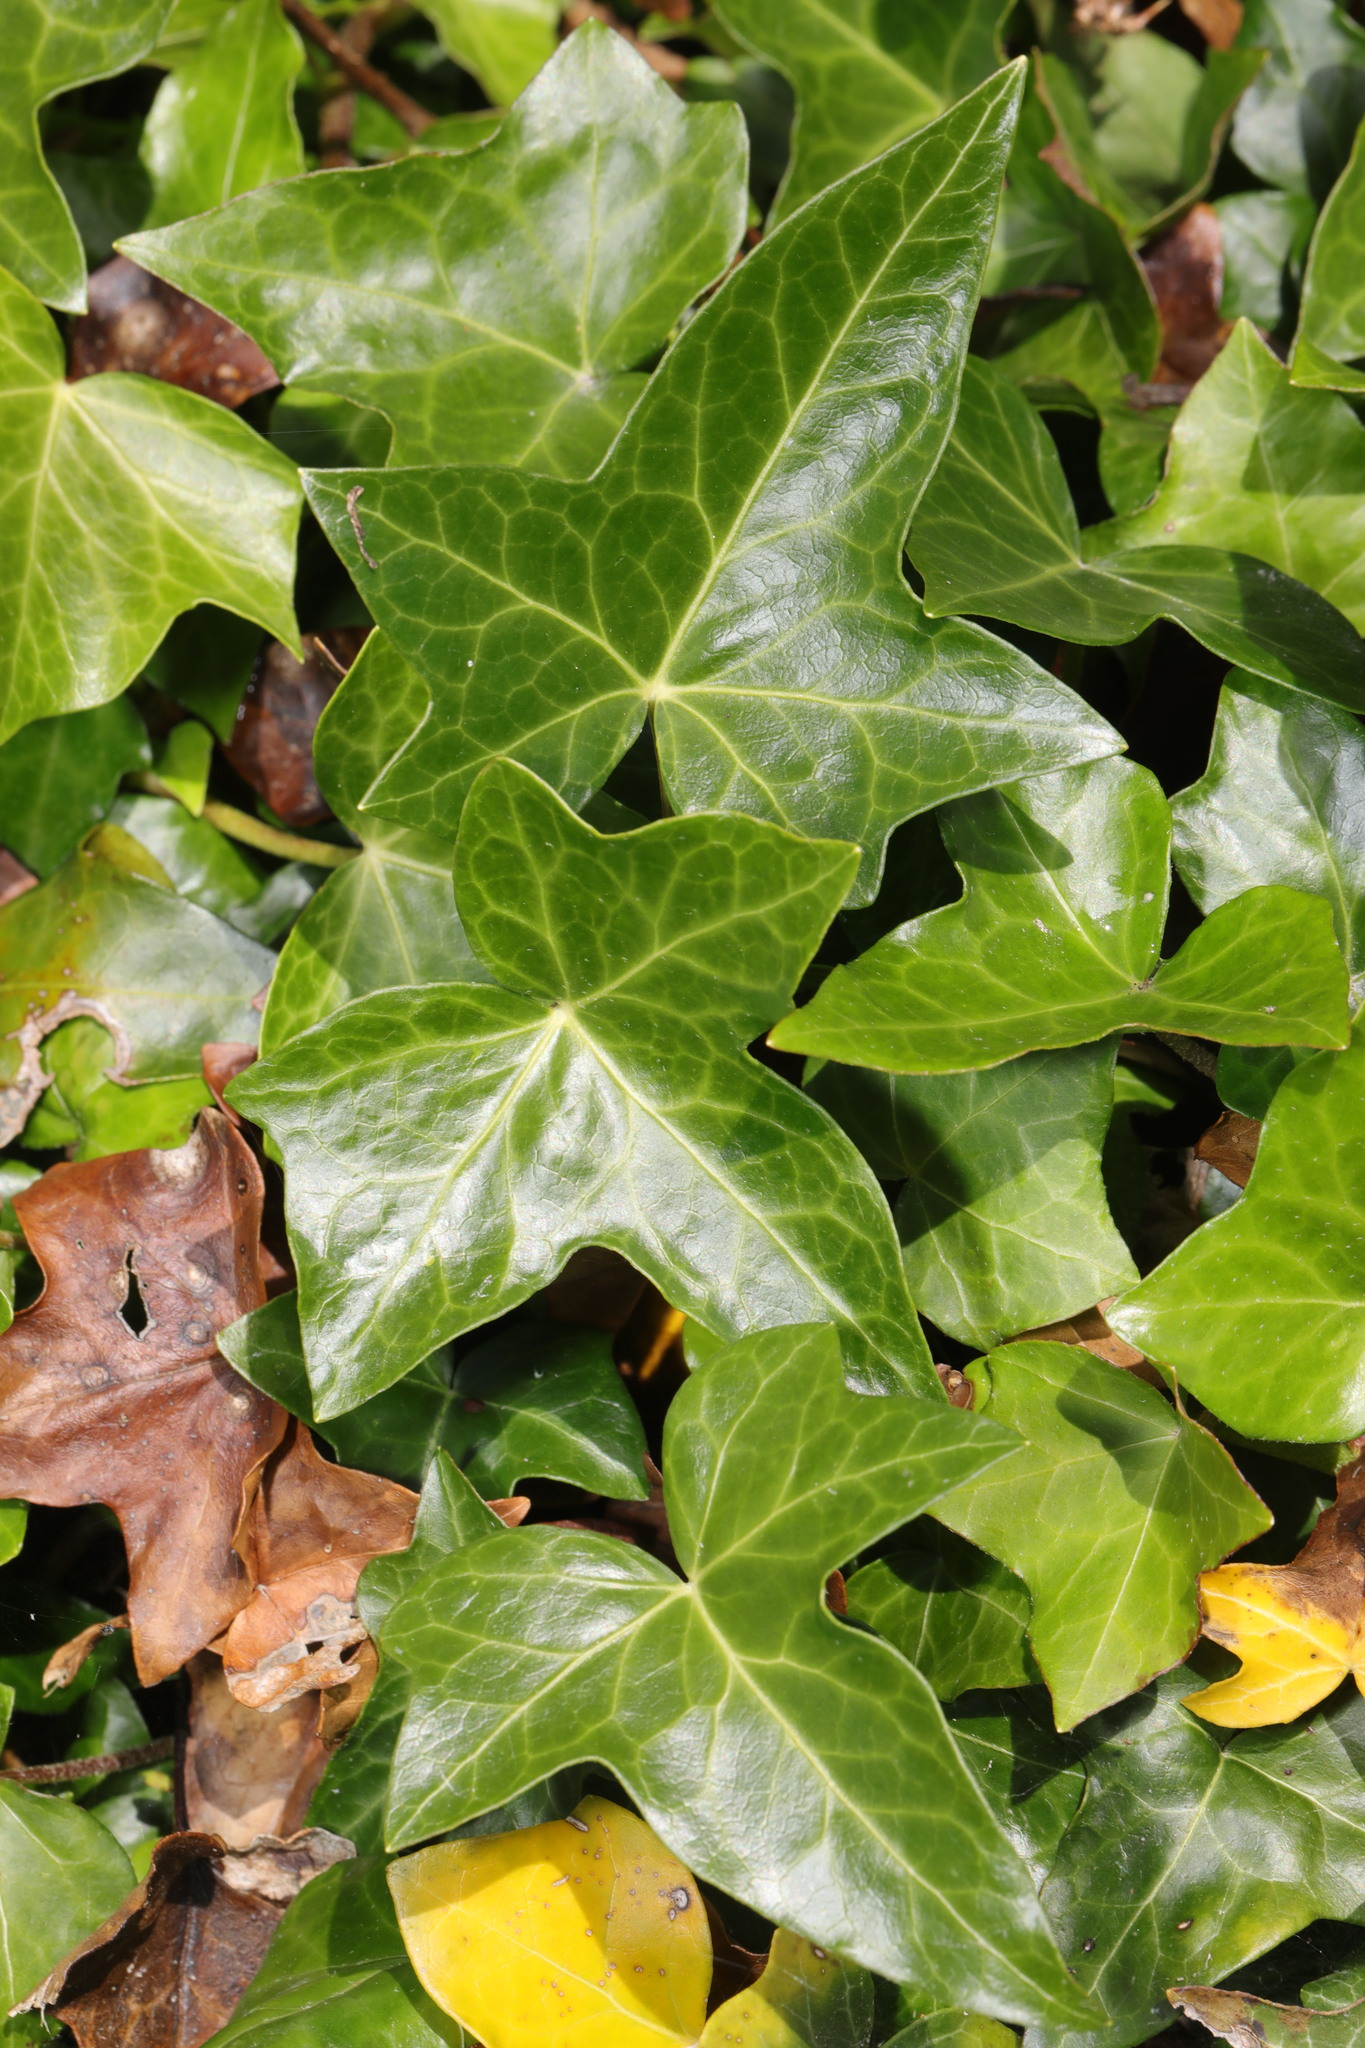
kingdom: Plantae
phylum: Tracheophyta
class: Magnoliopsida
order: Apiales
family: Araliaceae
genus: Hedera
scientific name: Hedera helix
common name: Ivy
